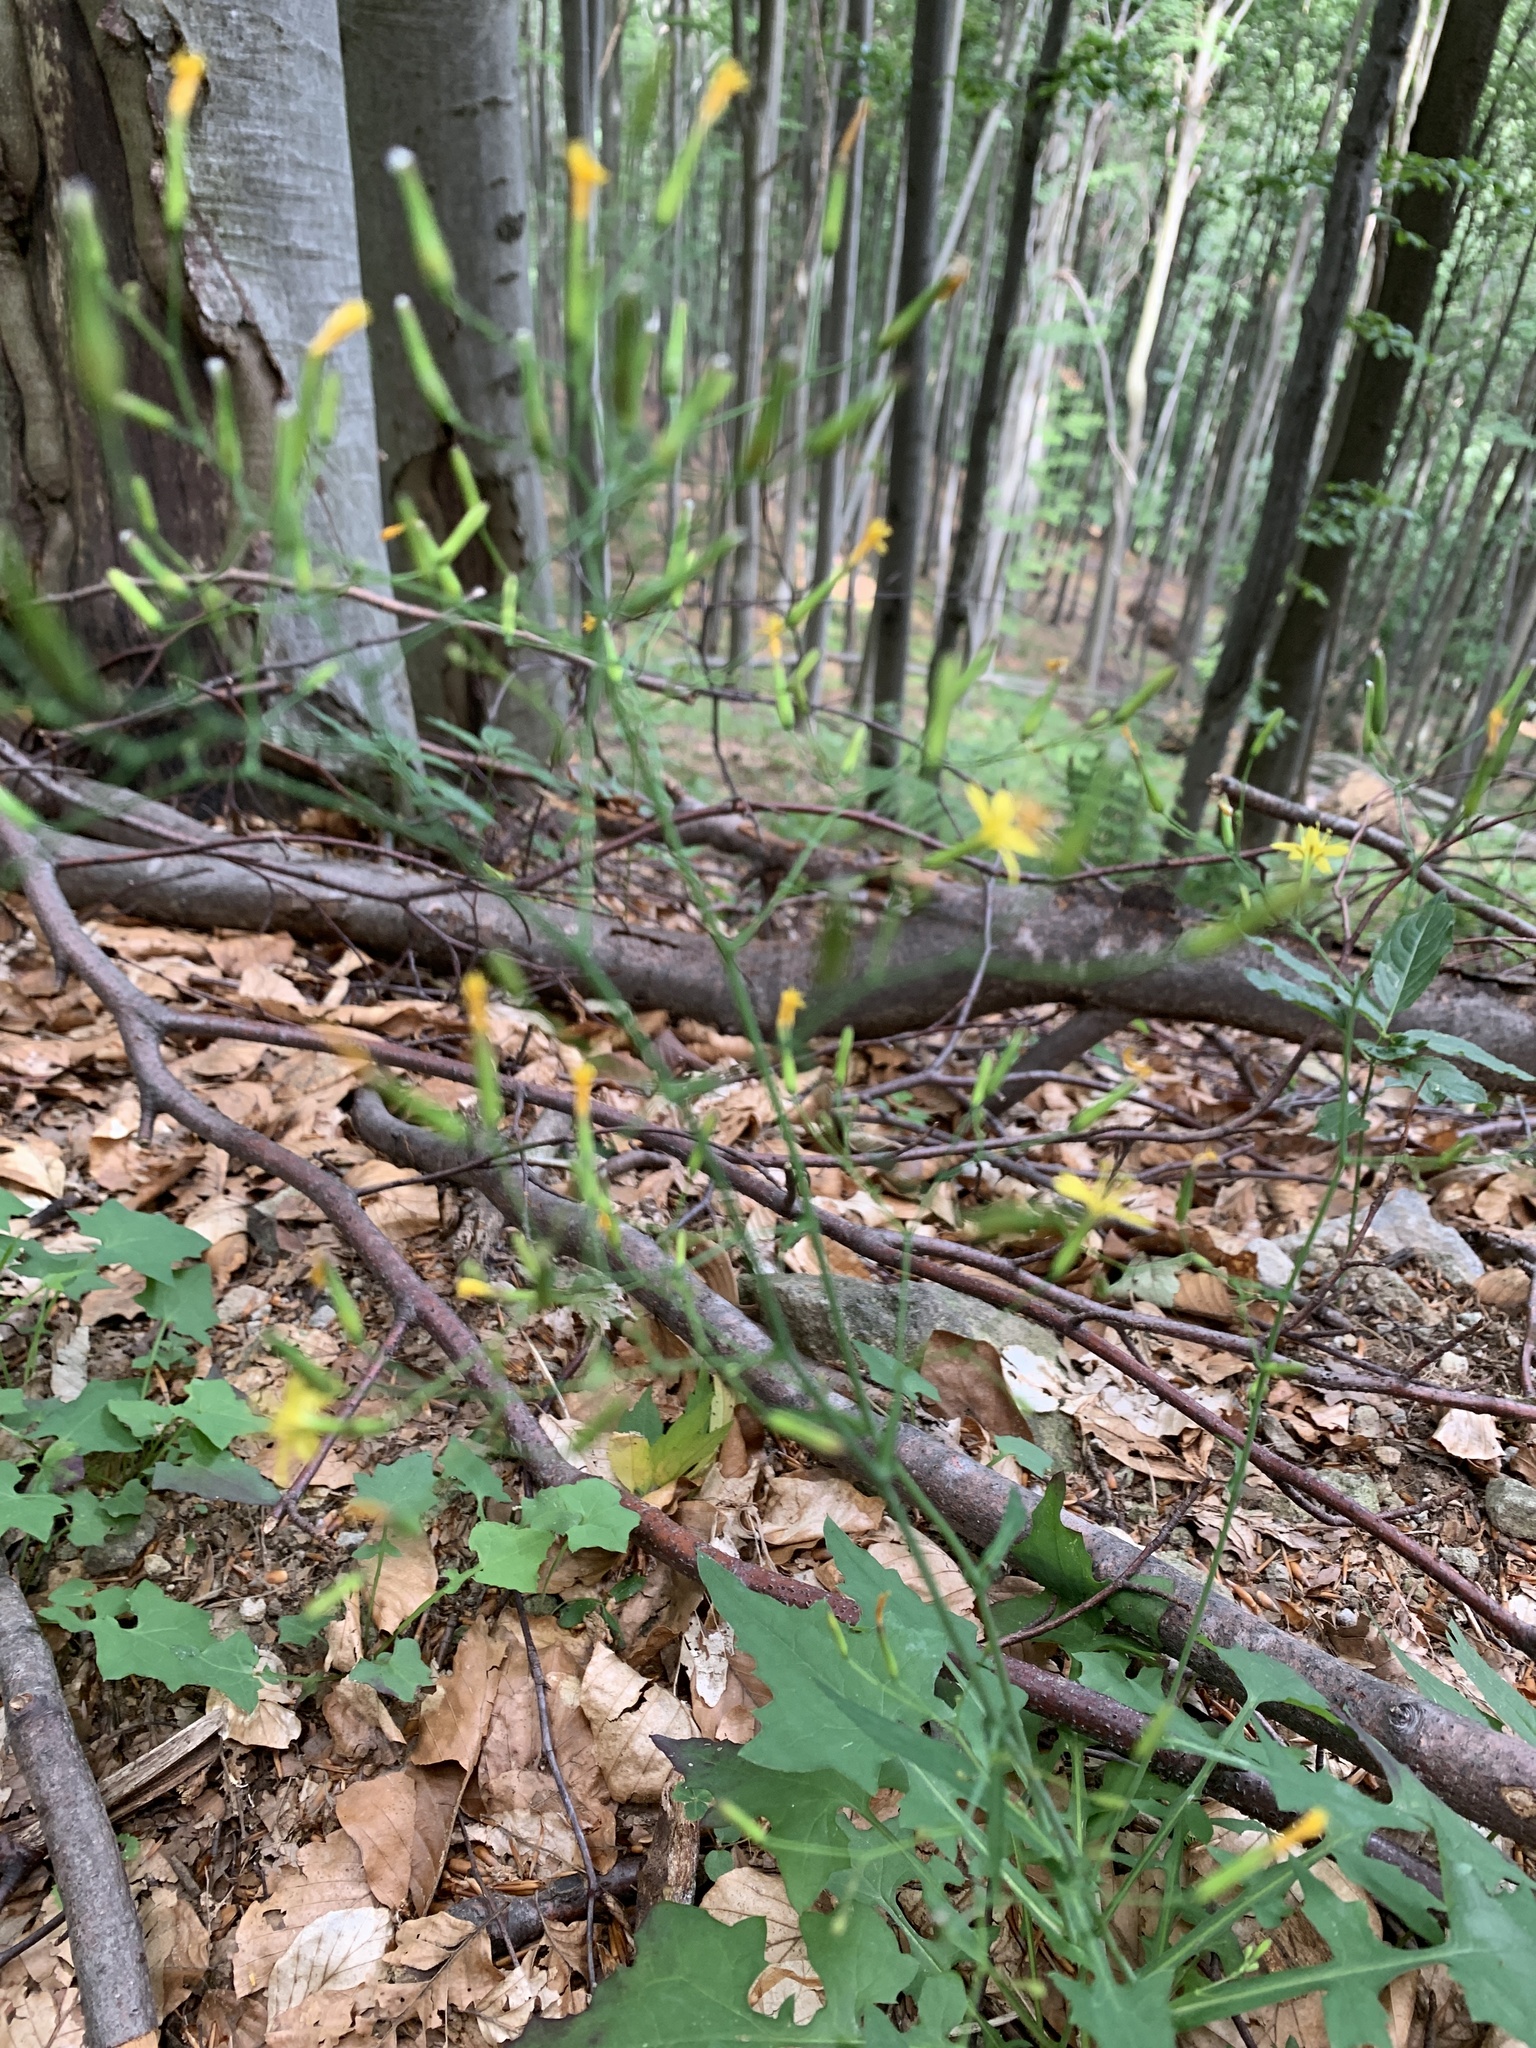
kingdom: Plantae
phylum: Tracheophyta
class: Magnoliopsida
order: Asterales
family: Asteraceae
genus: Mycelis
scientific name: Mycelis muralis
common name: Wall lettuce
